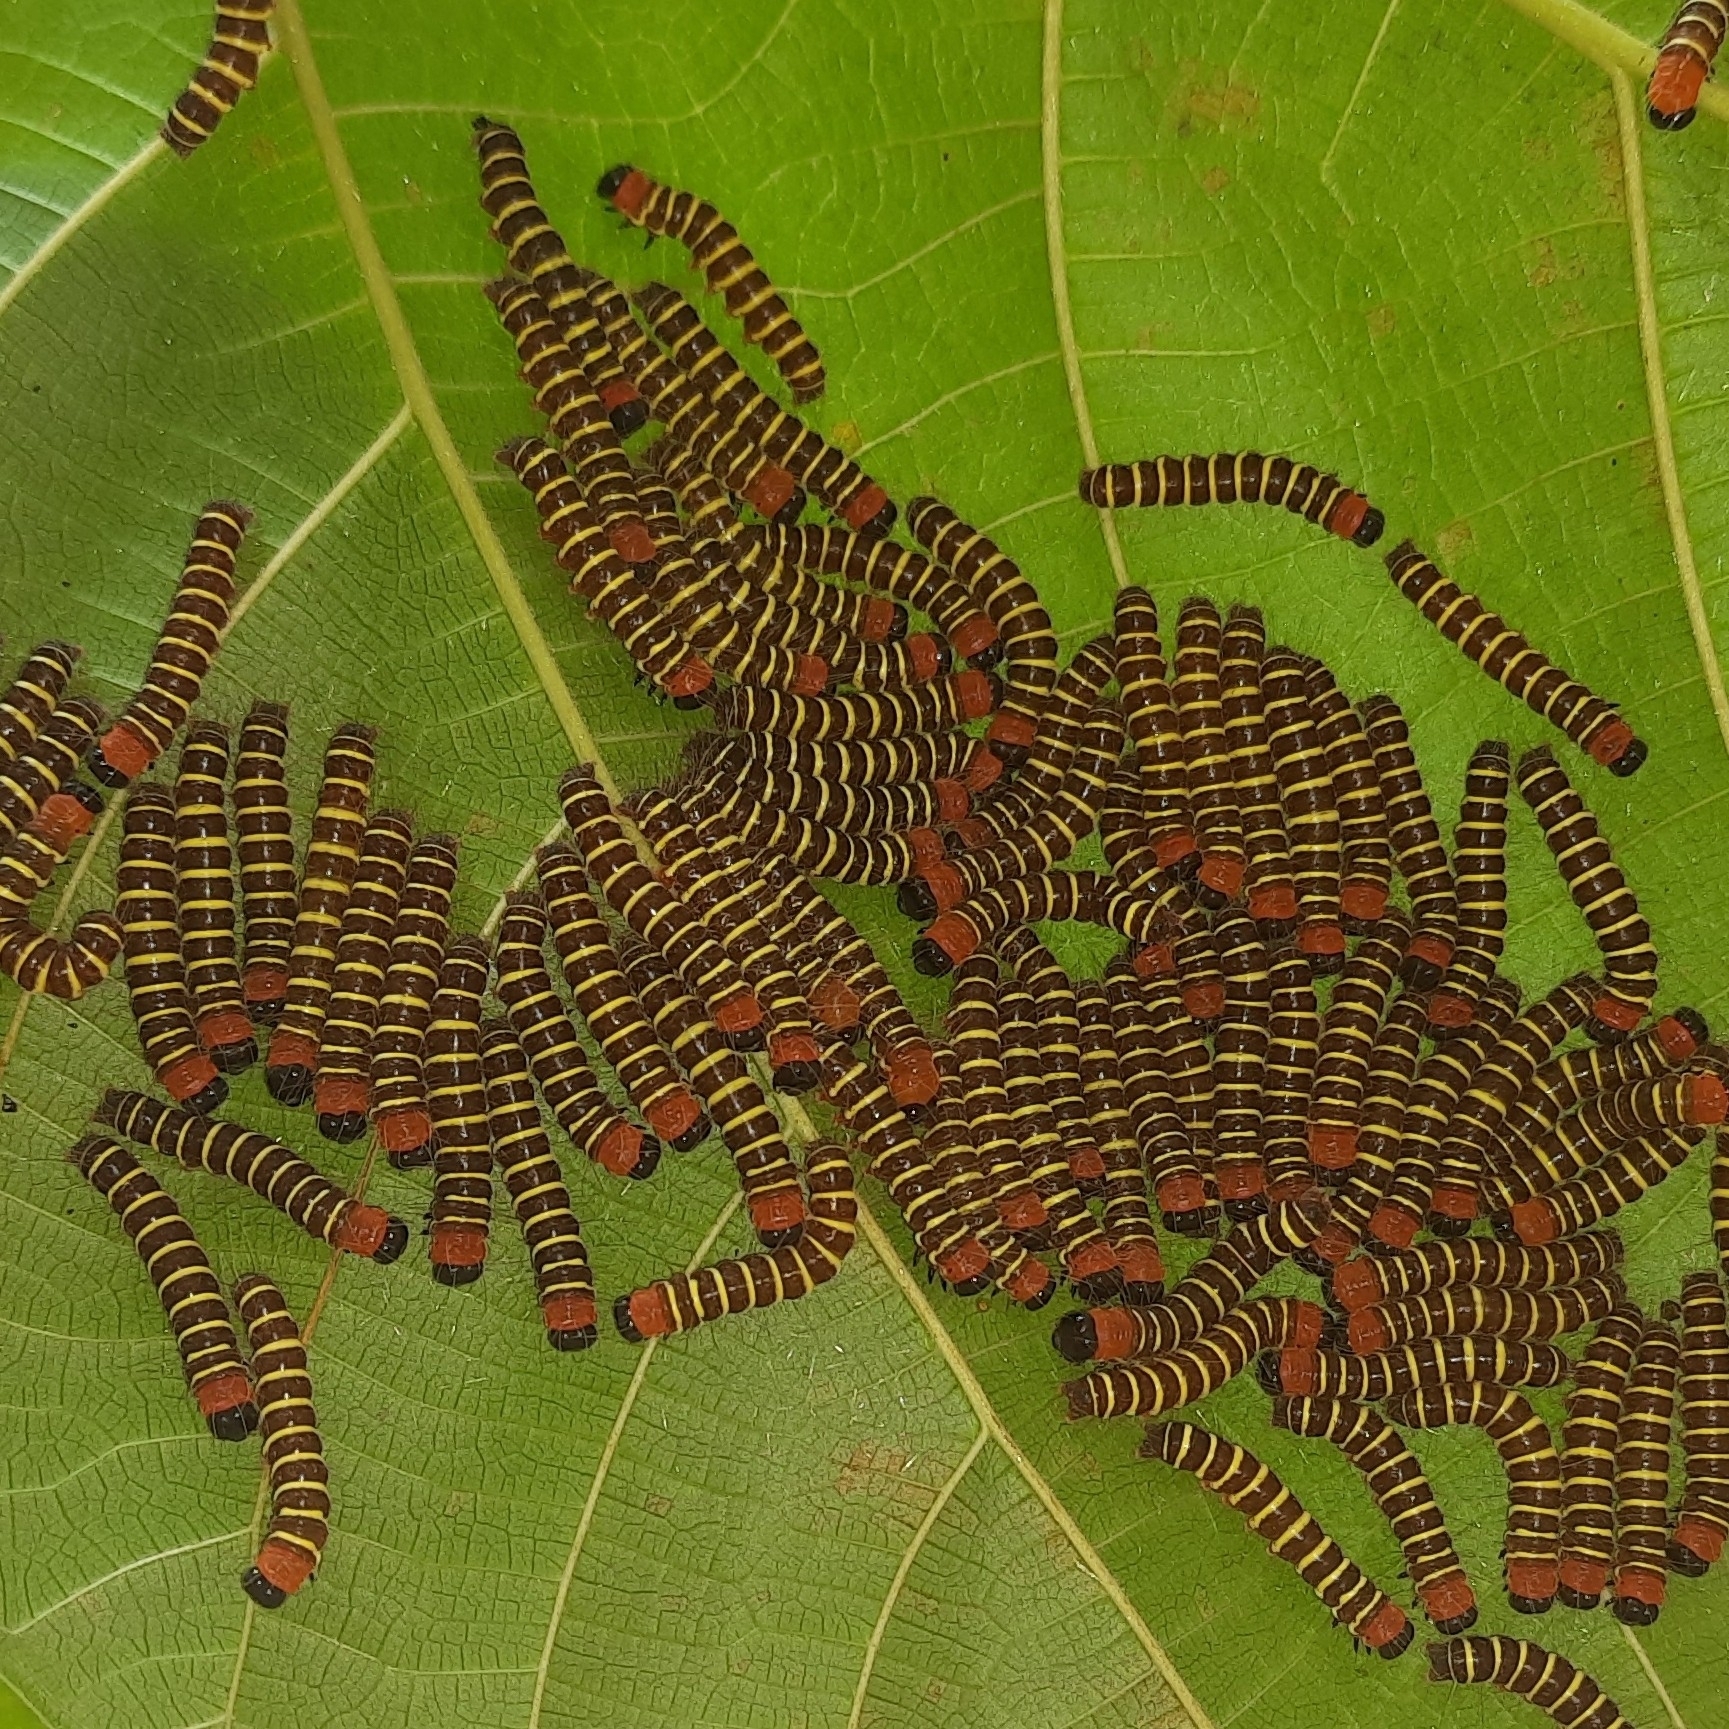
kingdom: Animalia
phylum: Arthropoda
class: Insecta
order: Lepidoptera
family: Erebidae
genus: Asota
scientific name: Asota plana
